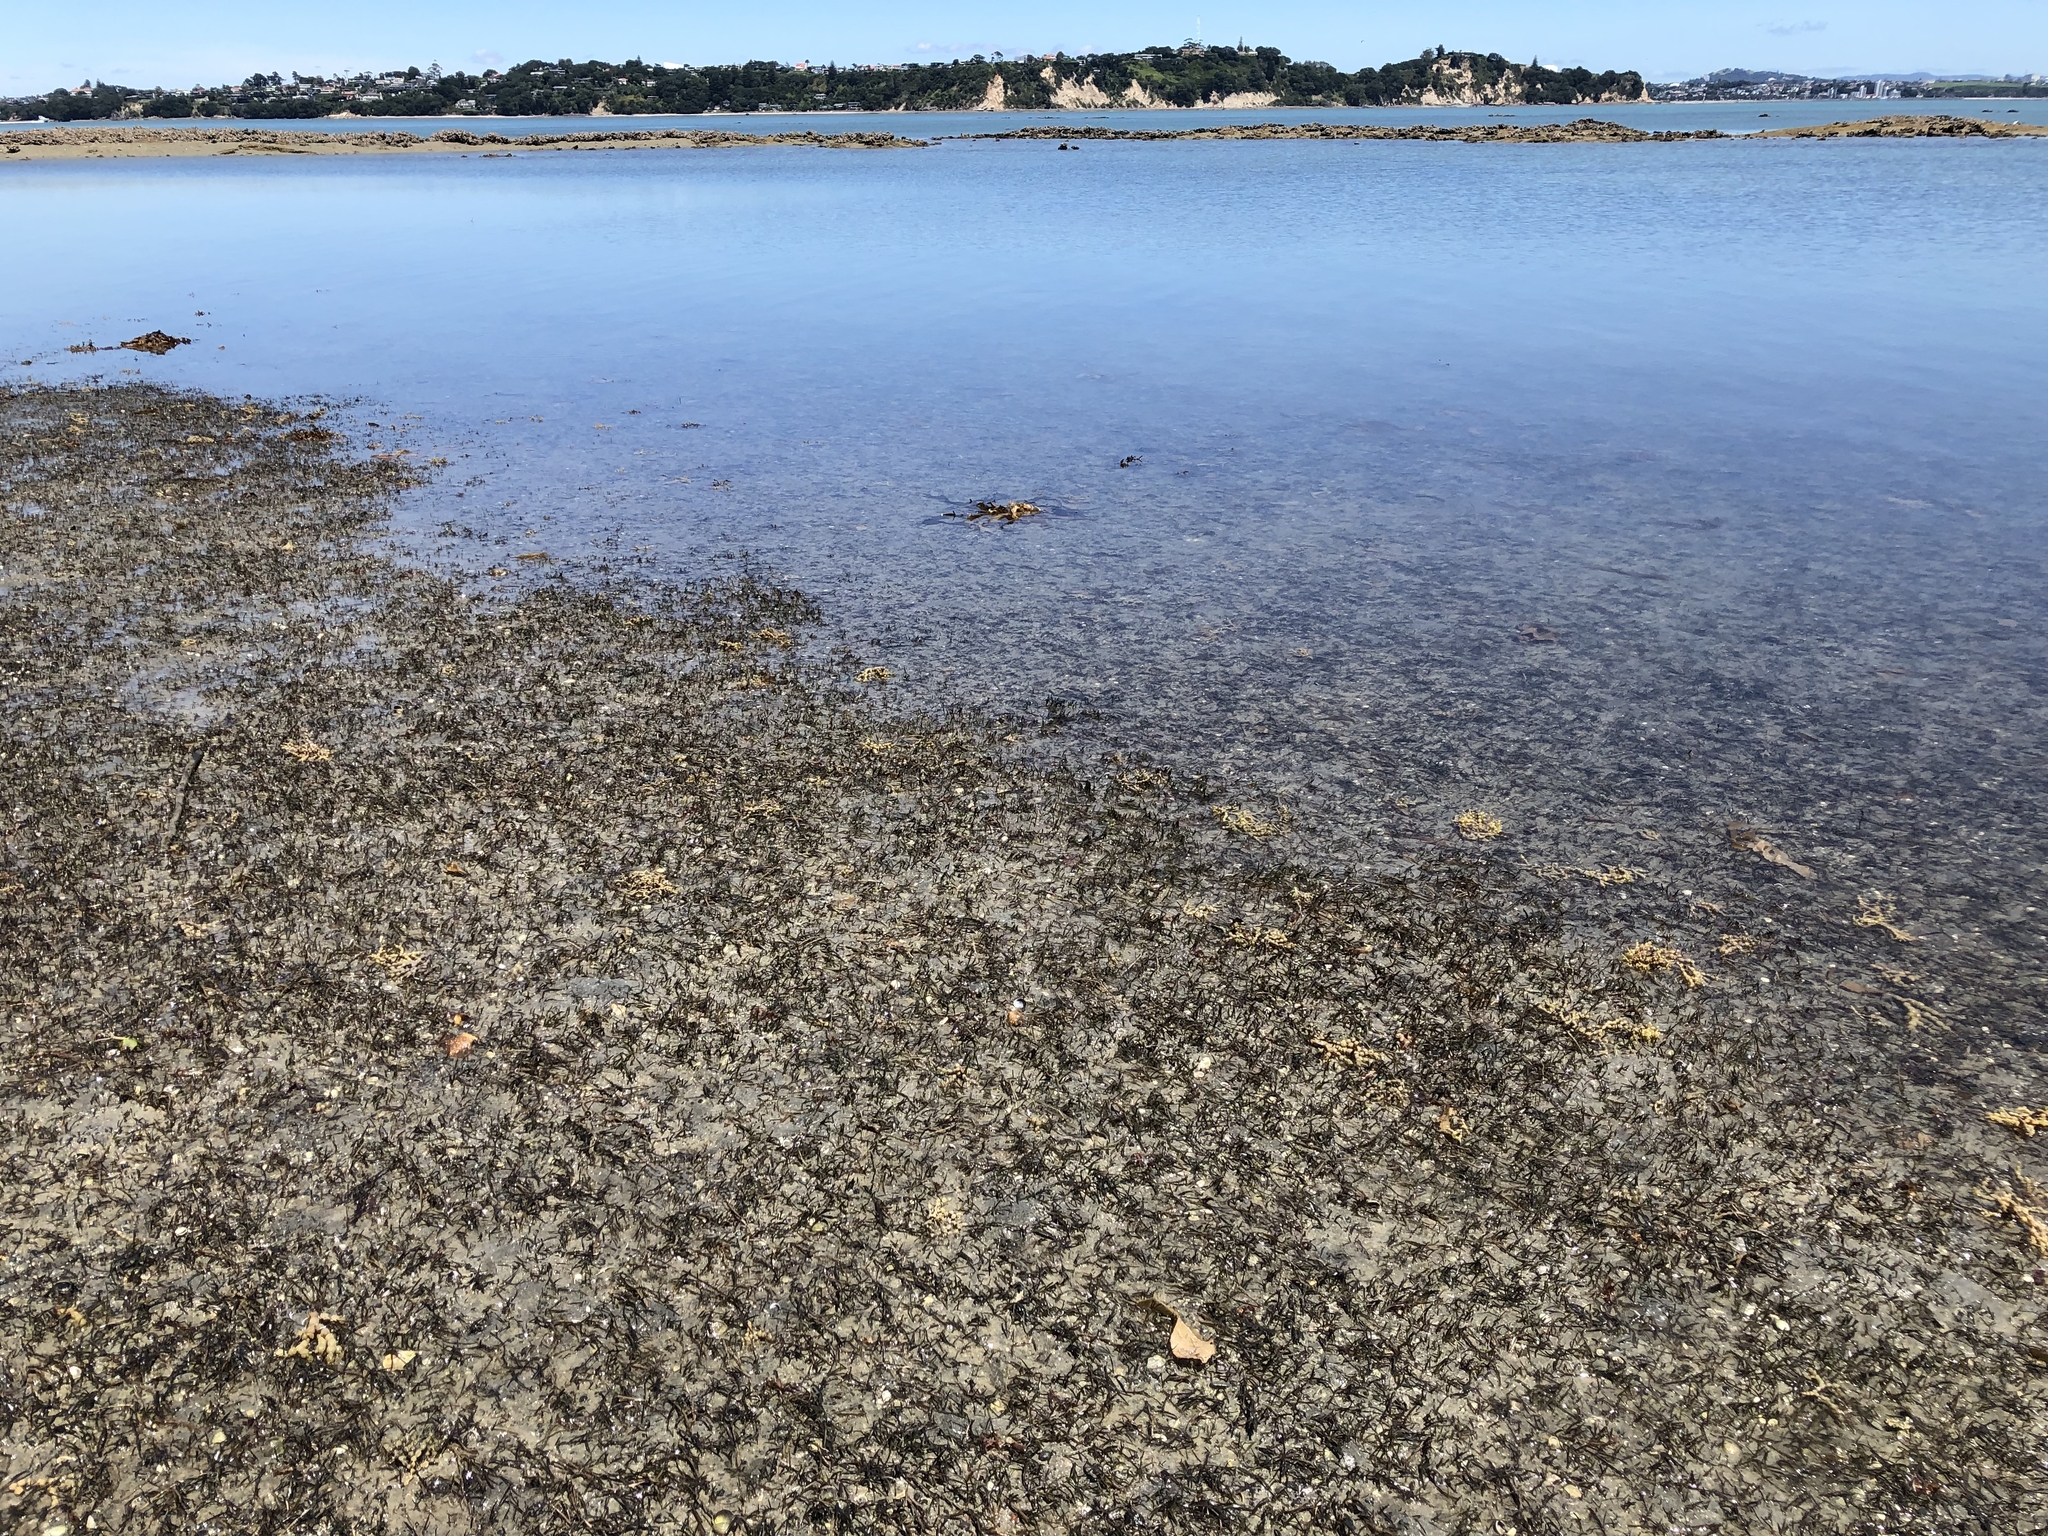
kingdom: Plantae
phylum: Tracheophyta
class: Liliopsida
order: Alismatales
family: Zosteraceae
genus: Zostera
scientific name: Zostera novazelandica
